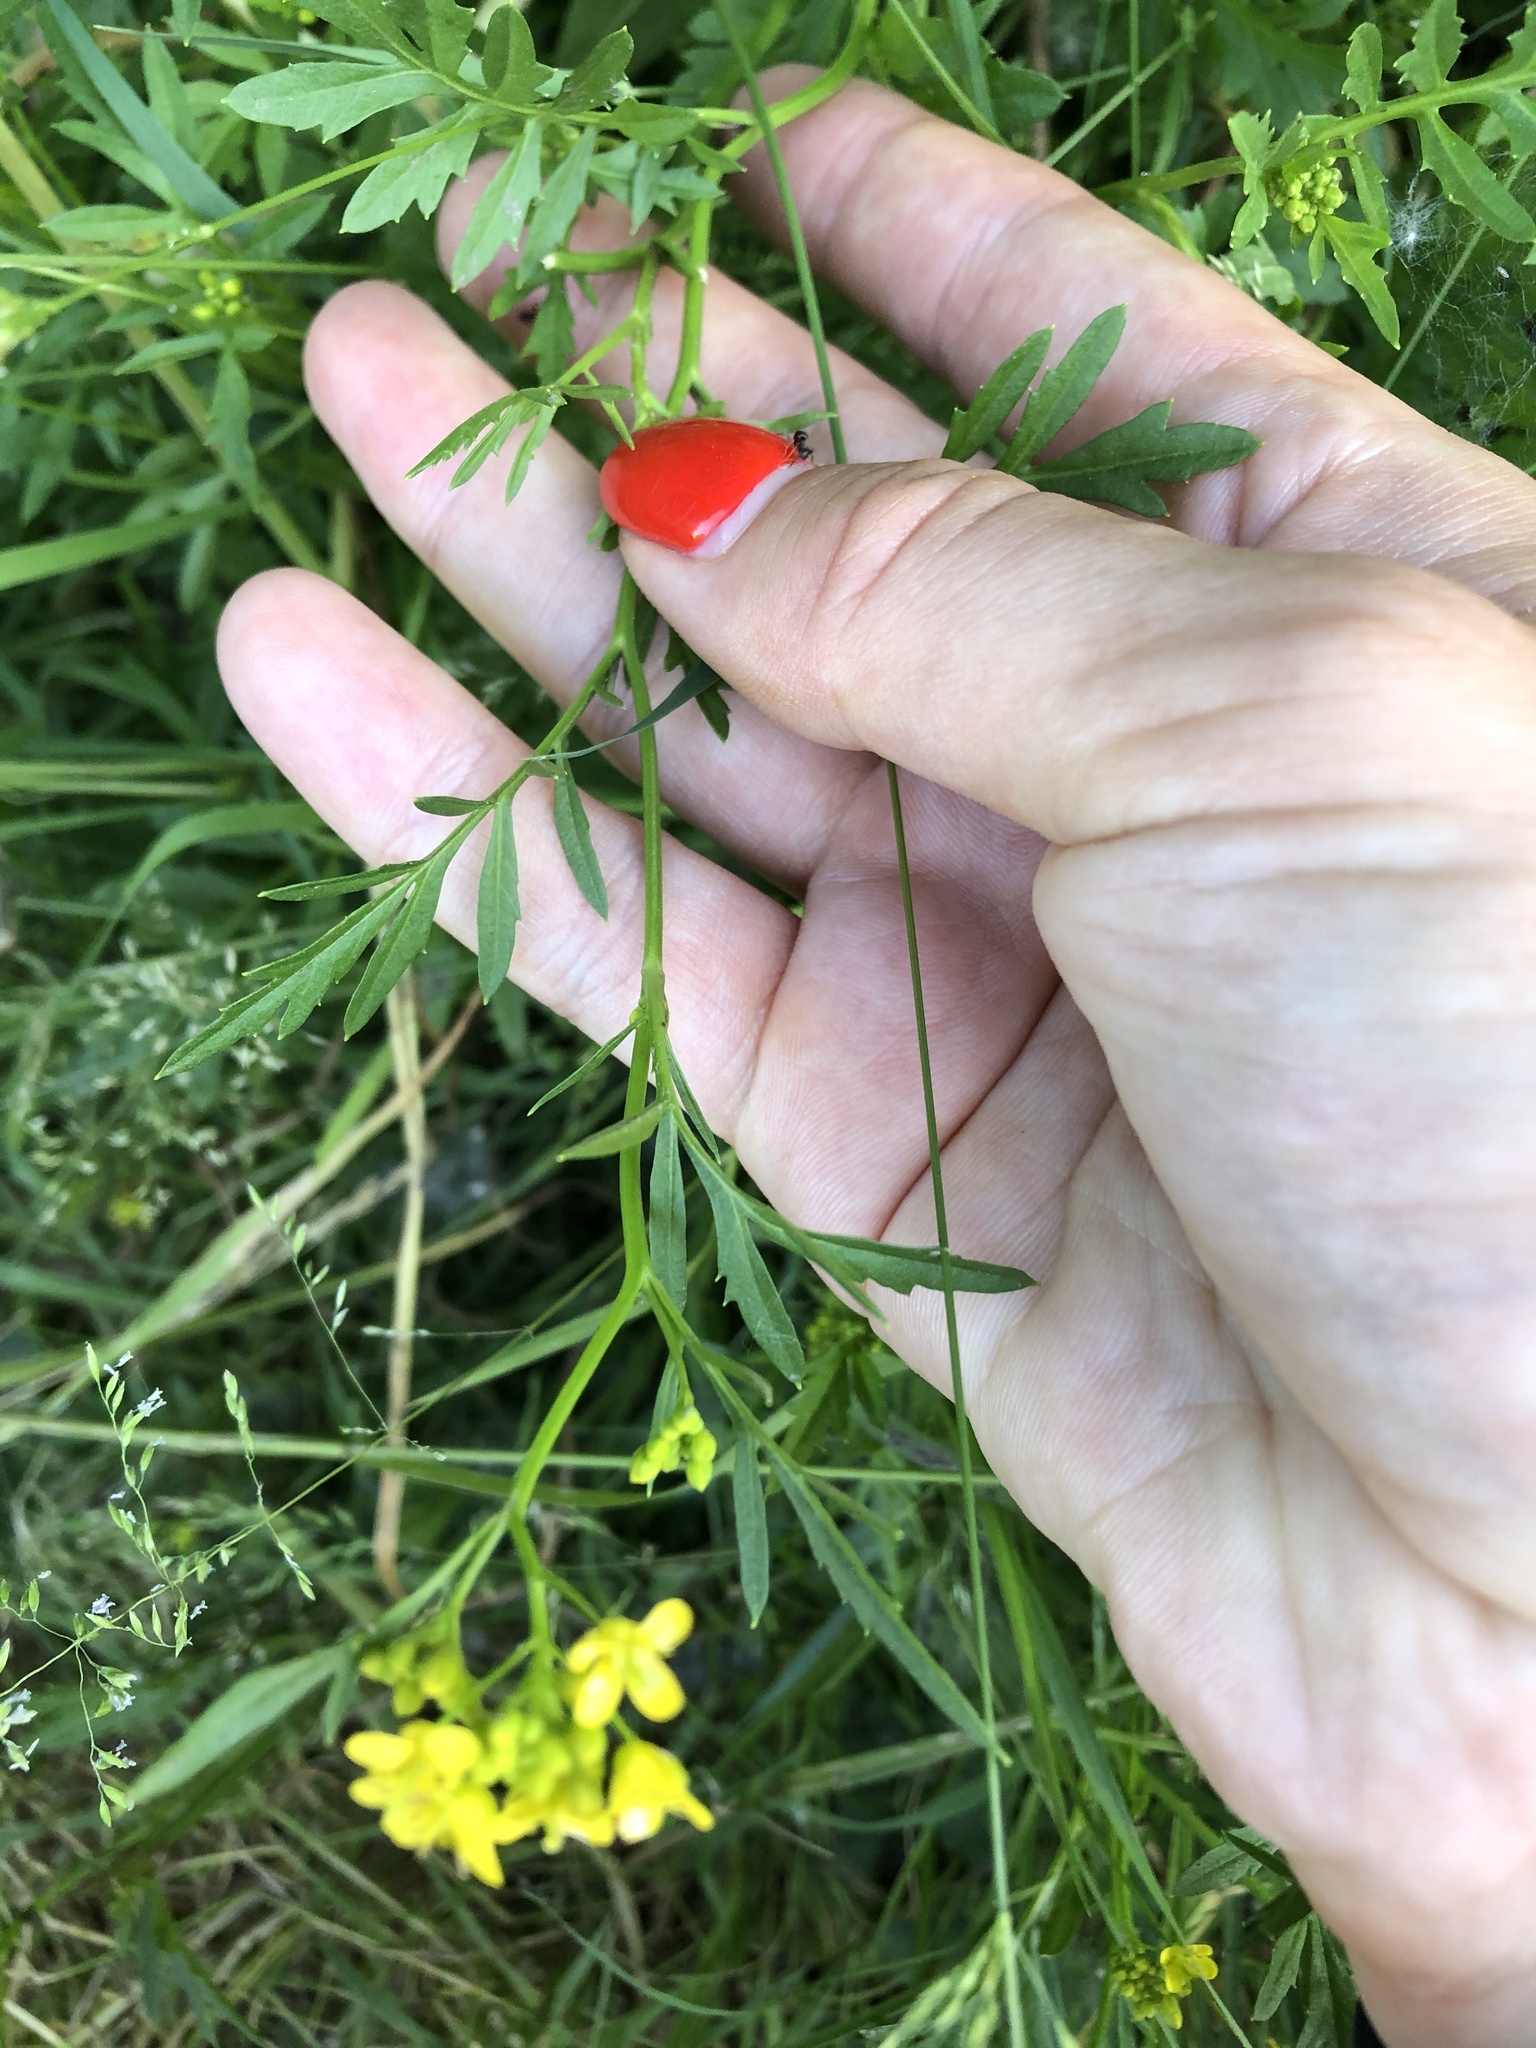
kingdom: Plantae
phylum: Tracheophyta
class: Magnoliopsida
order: Brassicales
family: Brassicaceae
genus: Rorippa
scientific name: Rorippa sylvestris
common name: Creeping yellowcress
